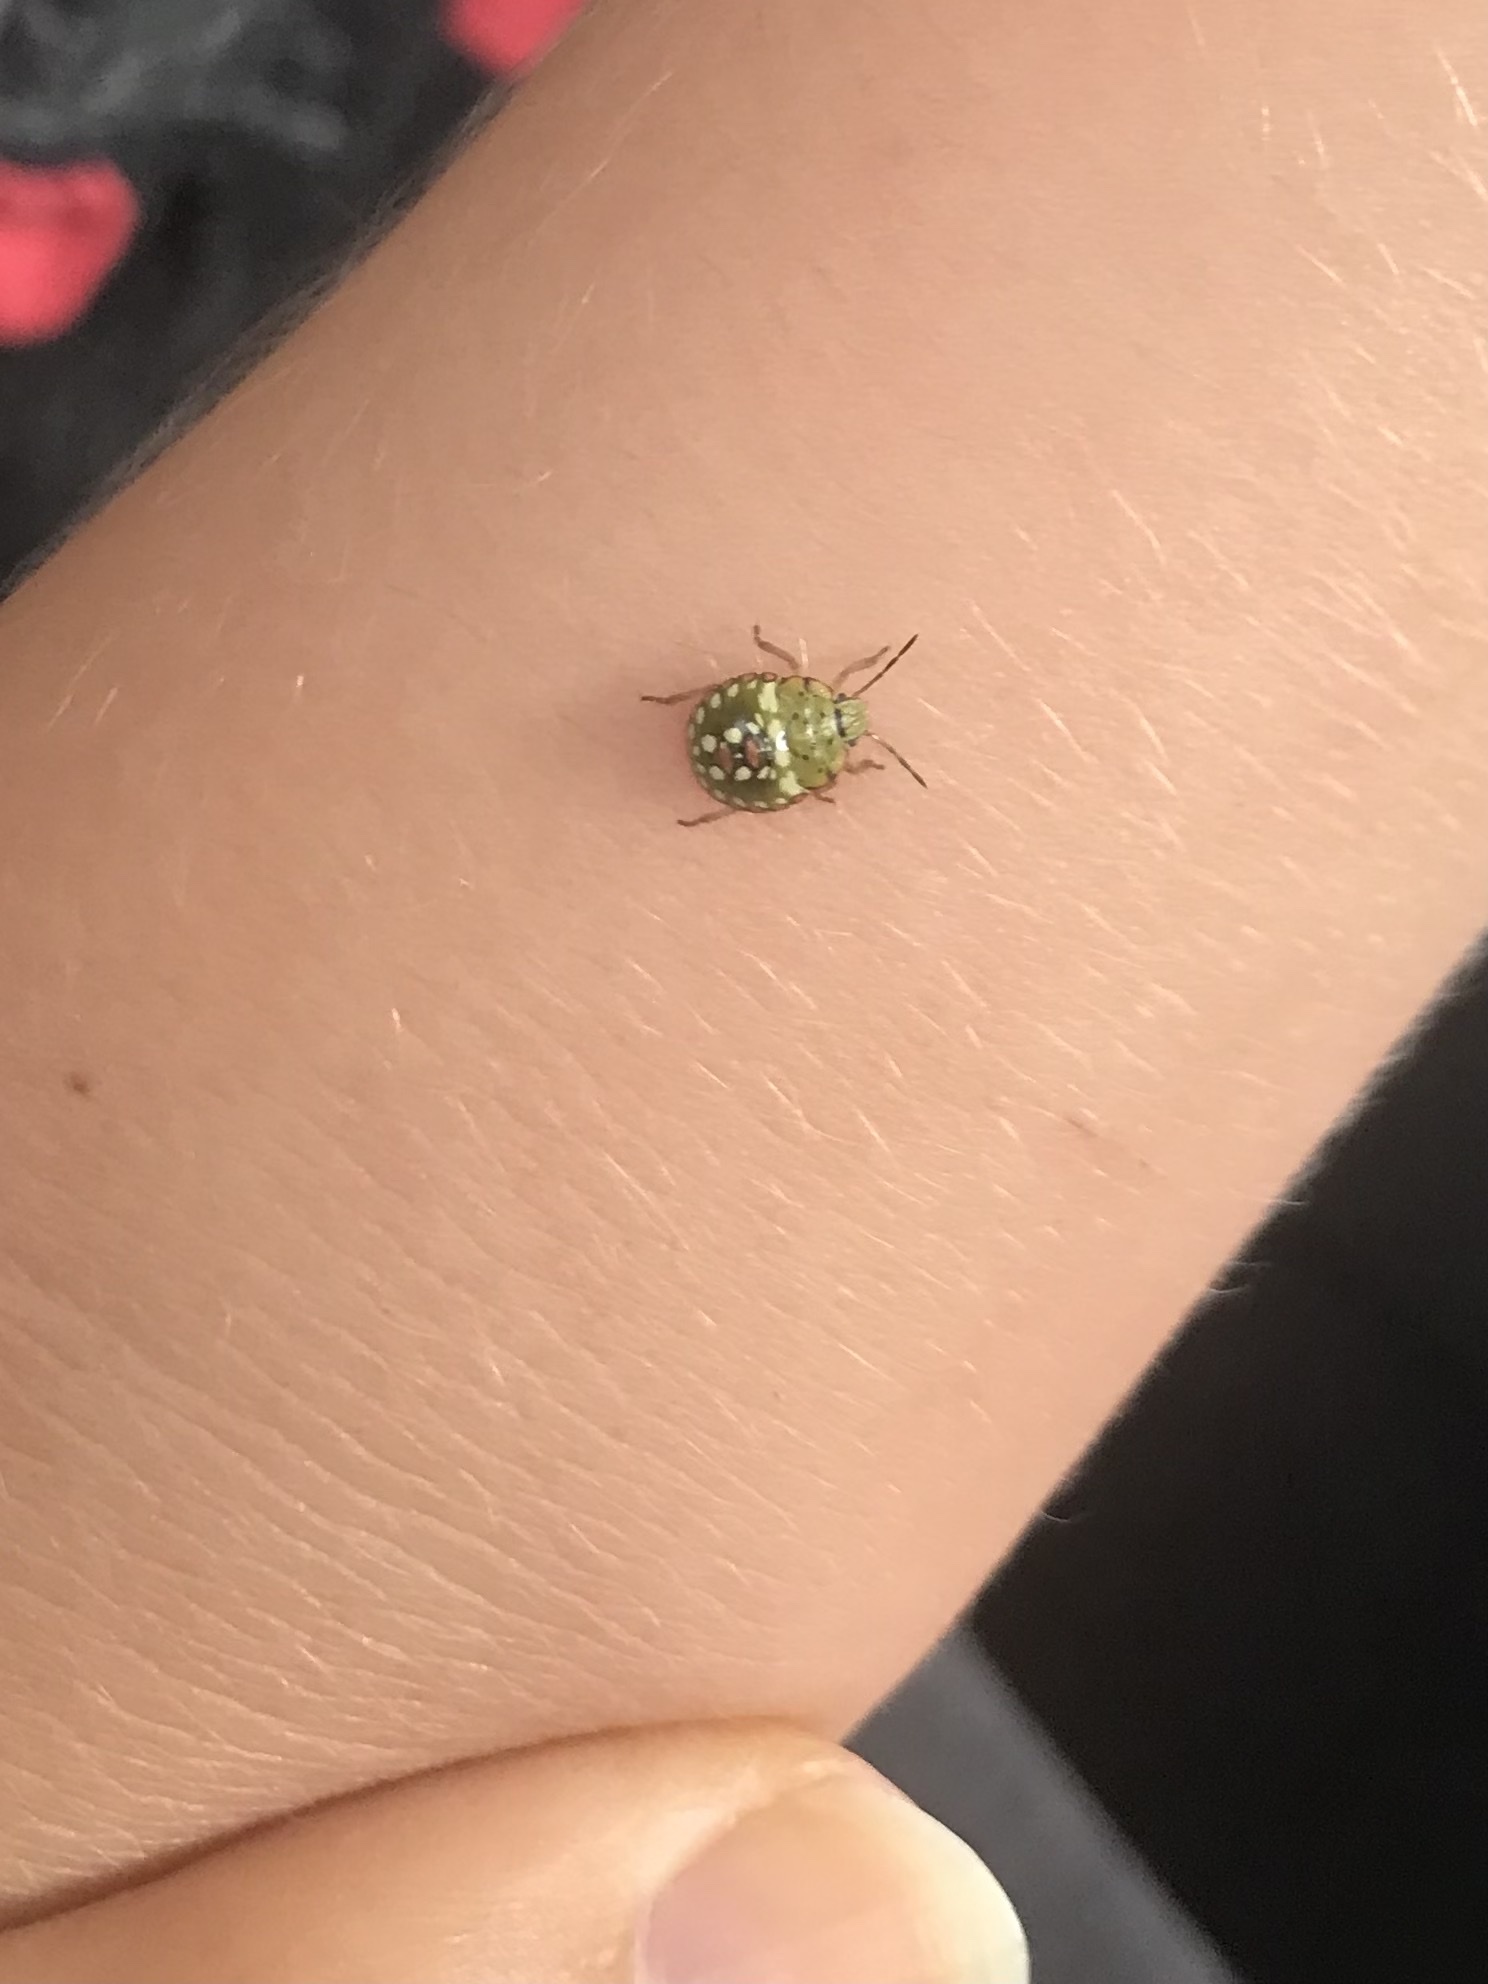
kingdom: Animalia
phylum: Arthropoda
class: Insecta
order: Hemiptera
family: Pentatomidae
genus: Nezara
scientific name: Nezara viridula
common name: Southern green stink bug
